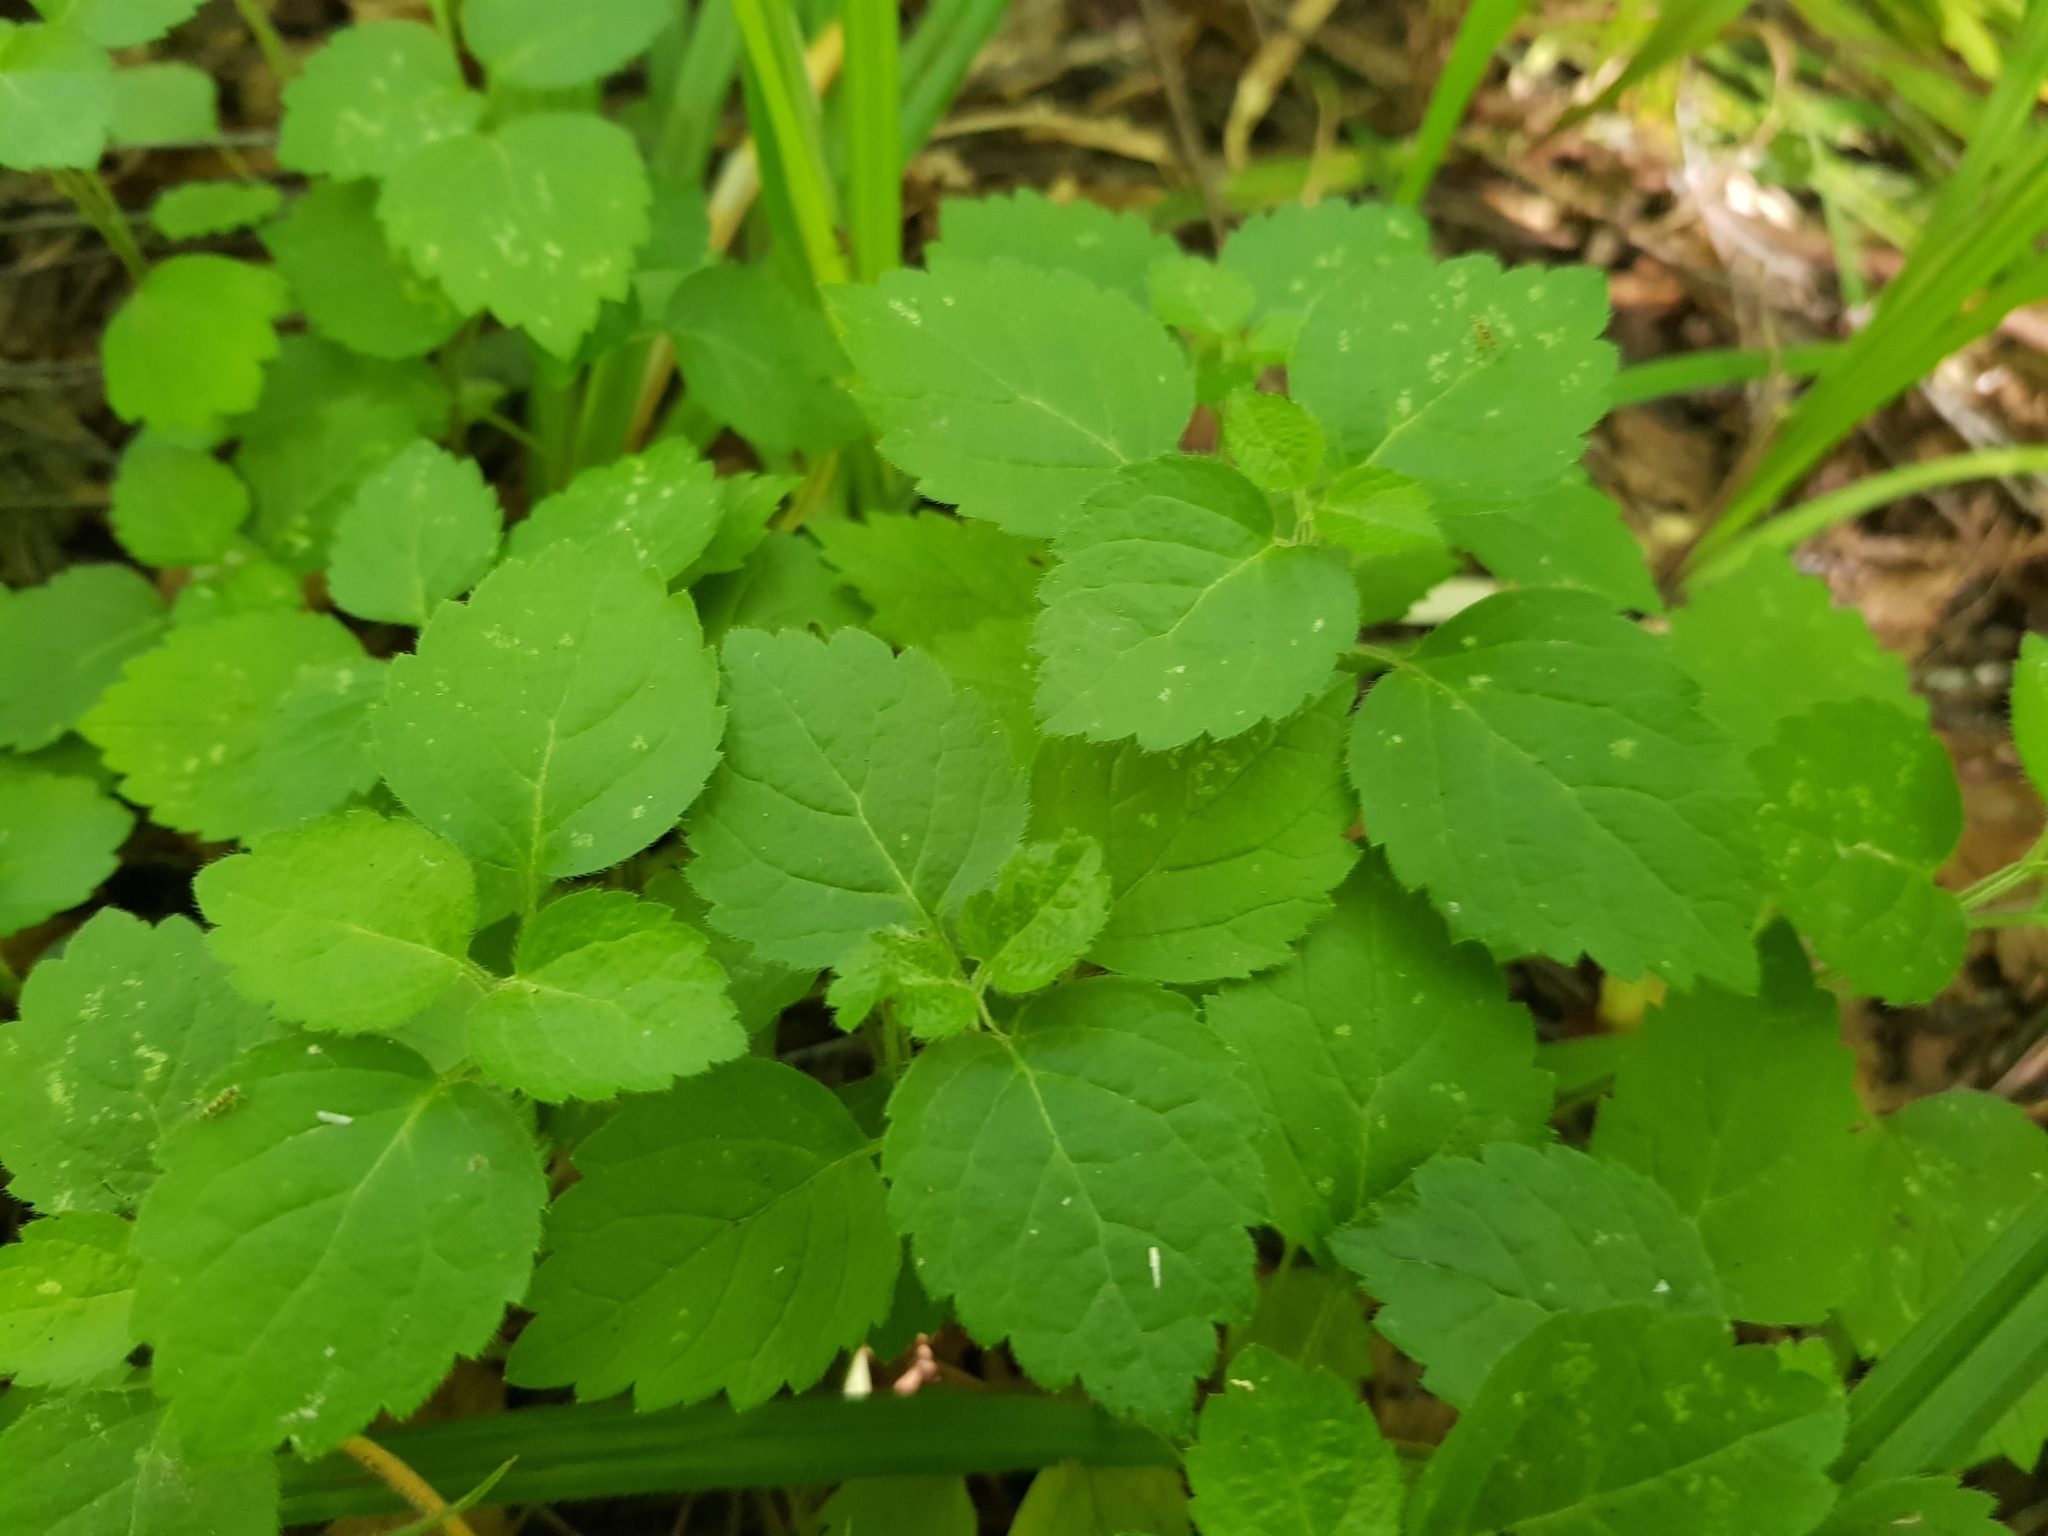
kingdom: Plantae
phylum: Tracheophyta
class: Magnoliopsida
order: Lamiales
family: Lamiaceae
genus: Lamium
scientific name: Lamium galeobdolon
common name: Yellow archangel
